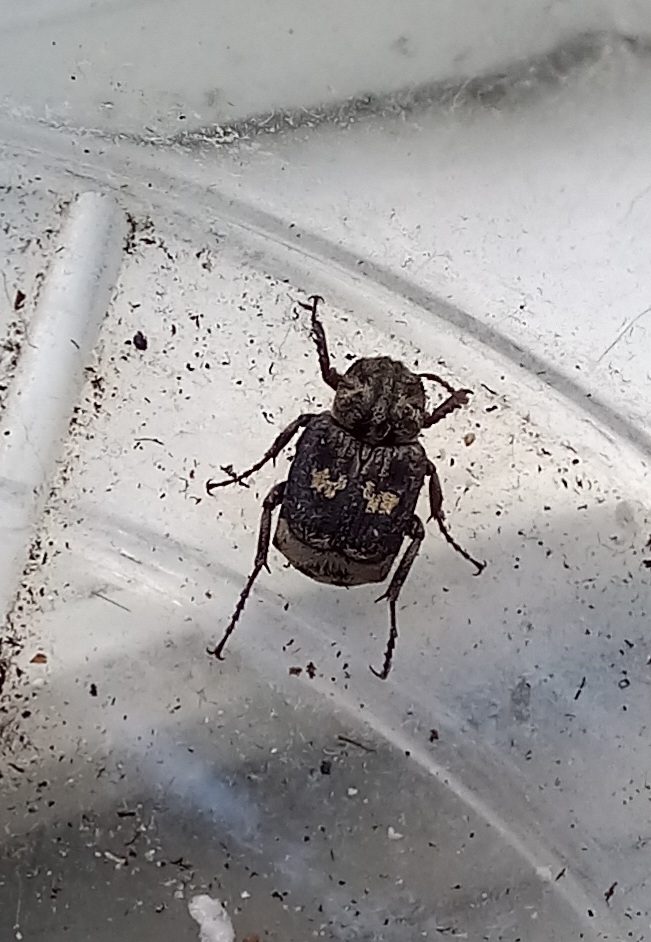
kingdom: Animalia
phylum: Arthropoda
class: Insecta
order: Coleoptera
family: Scarabaeidae
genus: Valgus
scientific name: Valgus hemipterus
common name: Bug flower chafer
